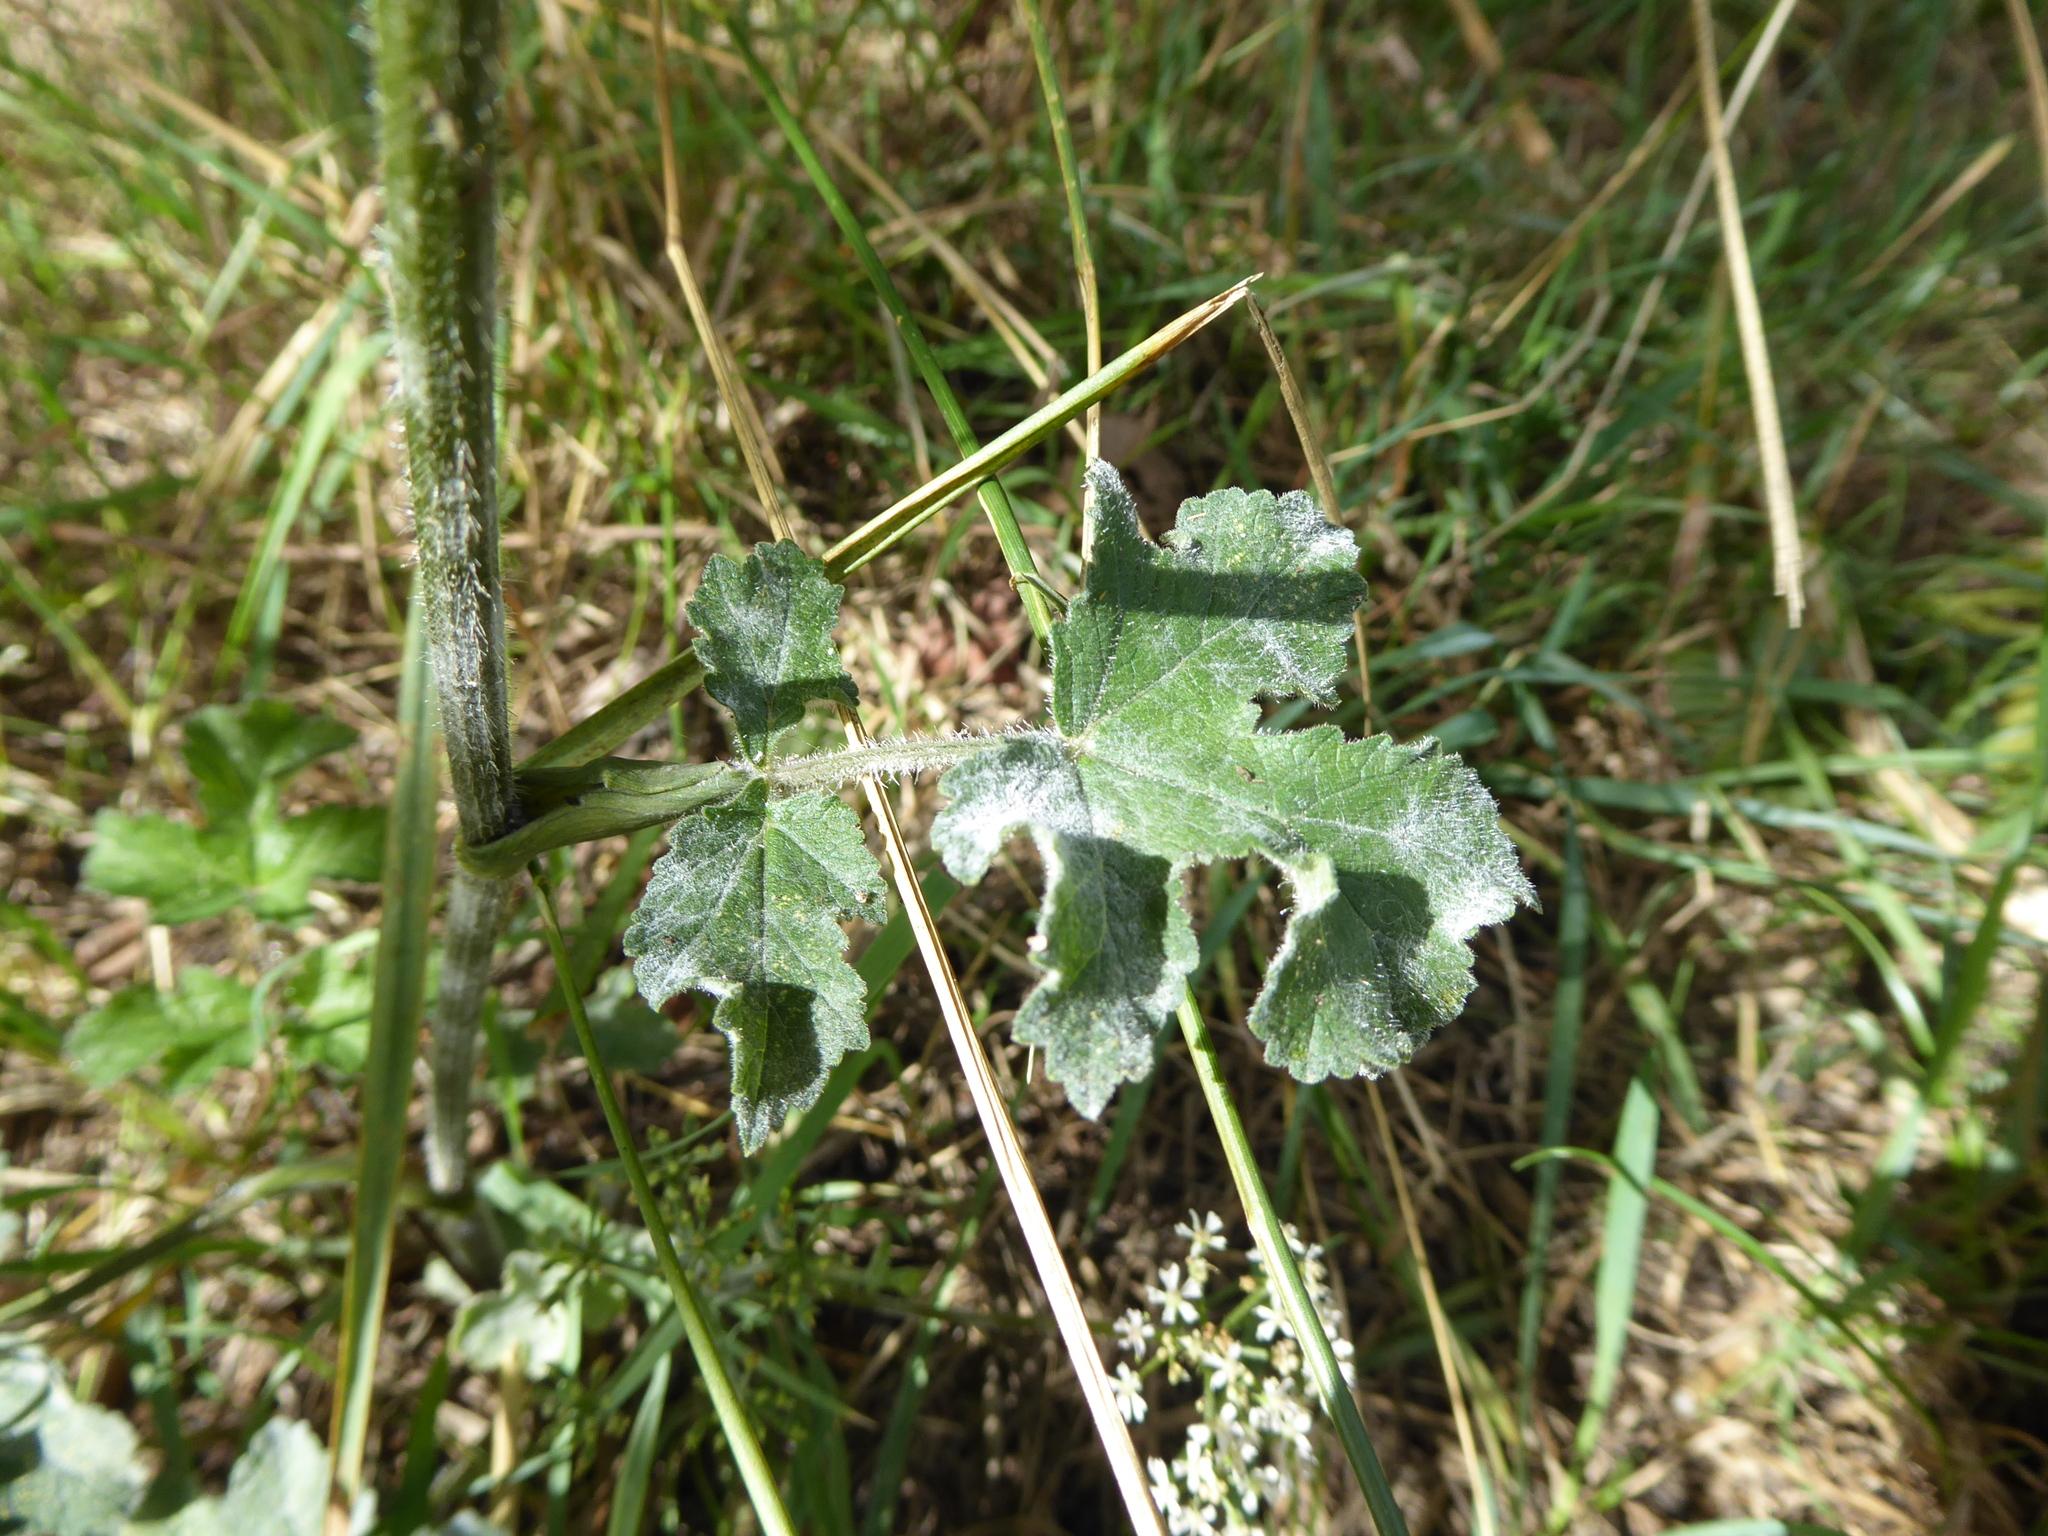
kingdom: Plantae
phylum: Tracheophyta
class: Magnoliopsida
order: Apiales
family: Apiaceae
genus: Heracleum
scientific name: Heracleum sphondylium
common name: Hogweed
